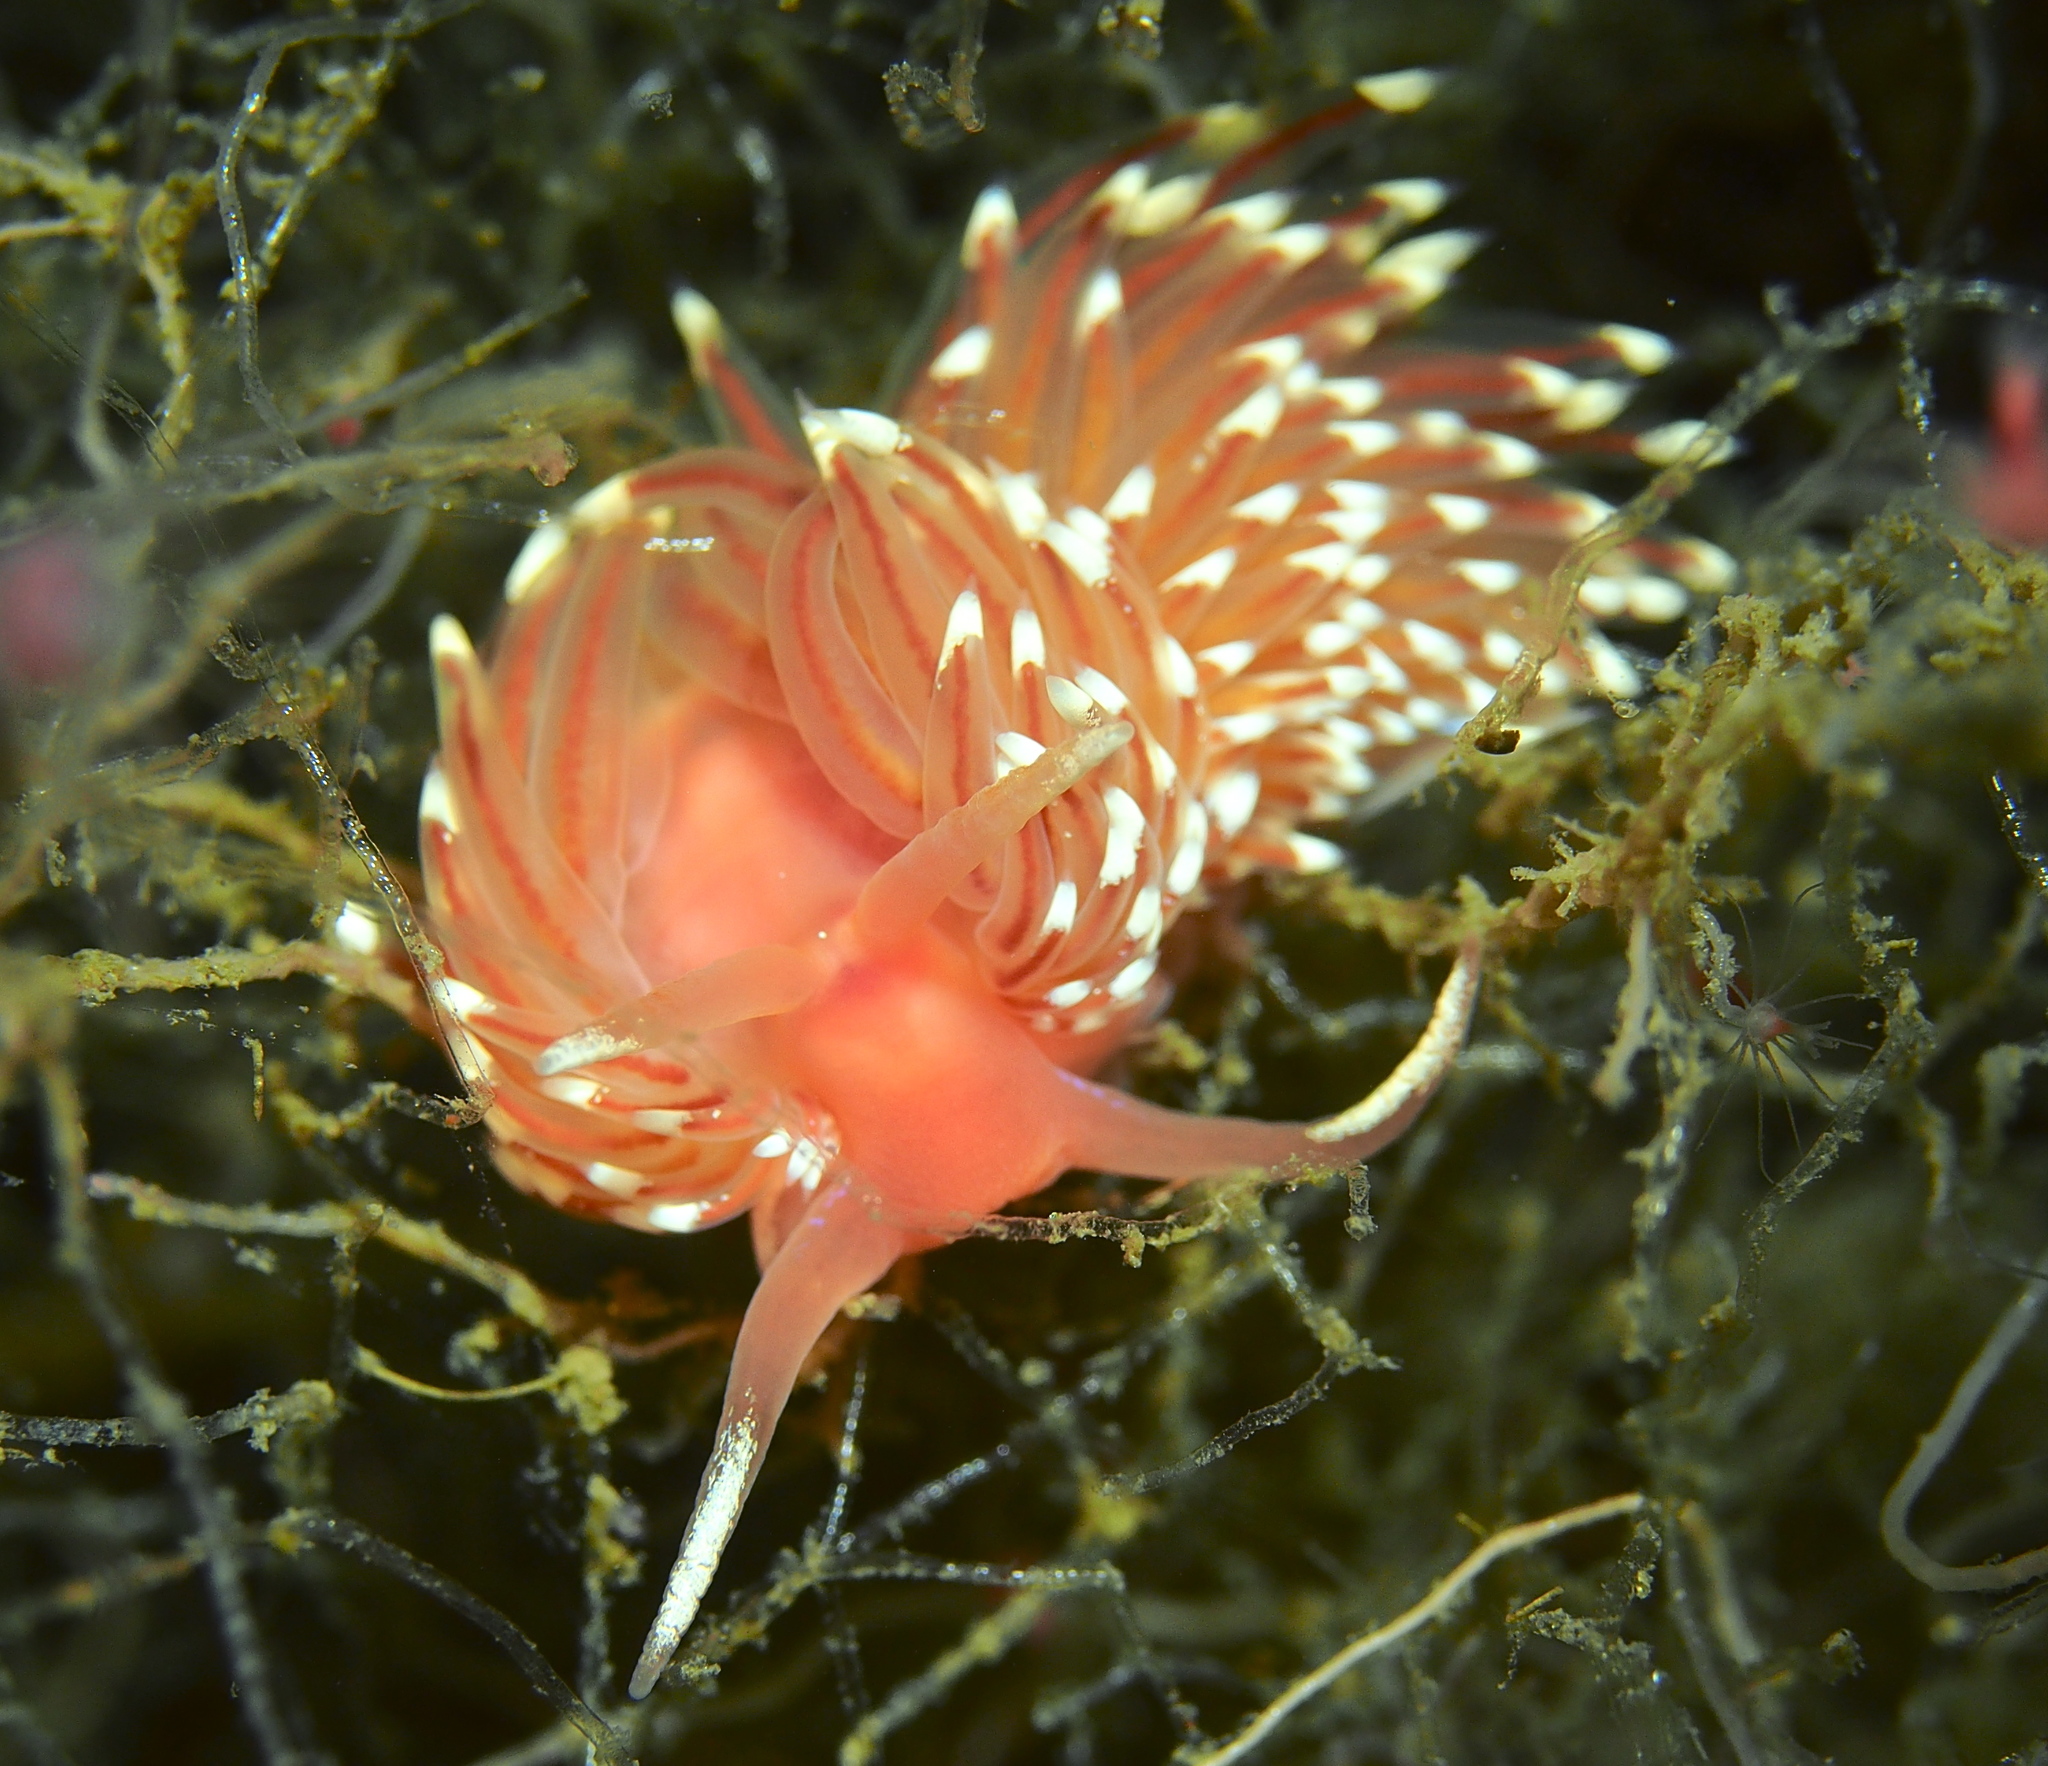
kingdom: Animalia
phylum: Mollusca
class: Gastropoda
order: Nudibranchia
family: Facelinidae
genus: Facelina
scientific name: Facelina bostoniensis
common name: Boston facelina
